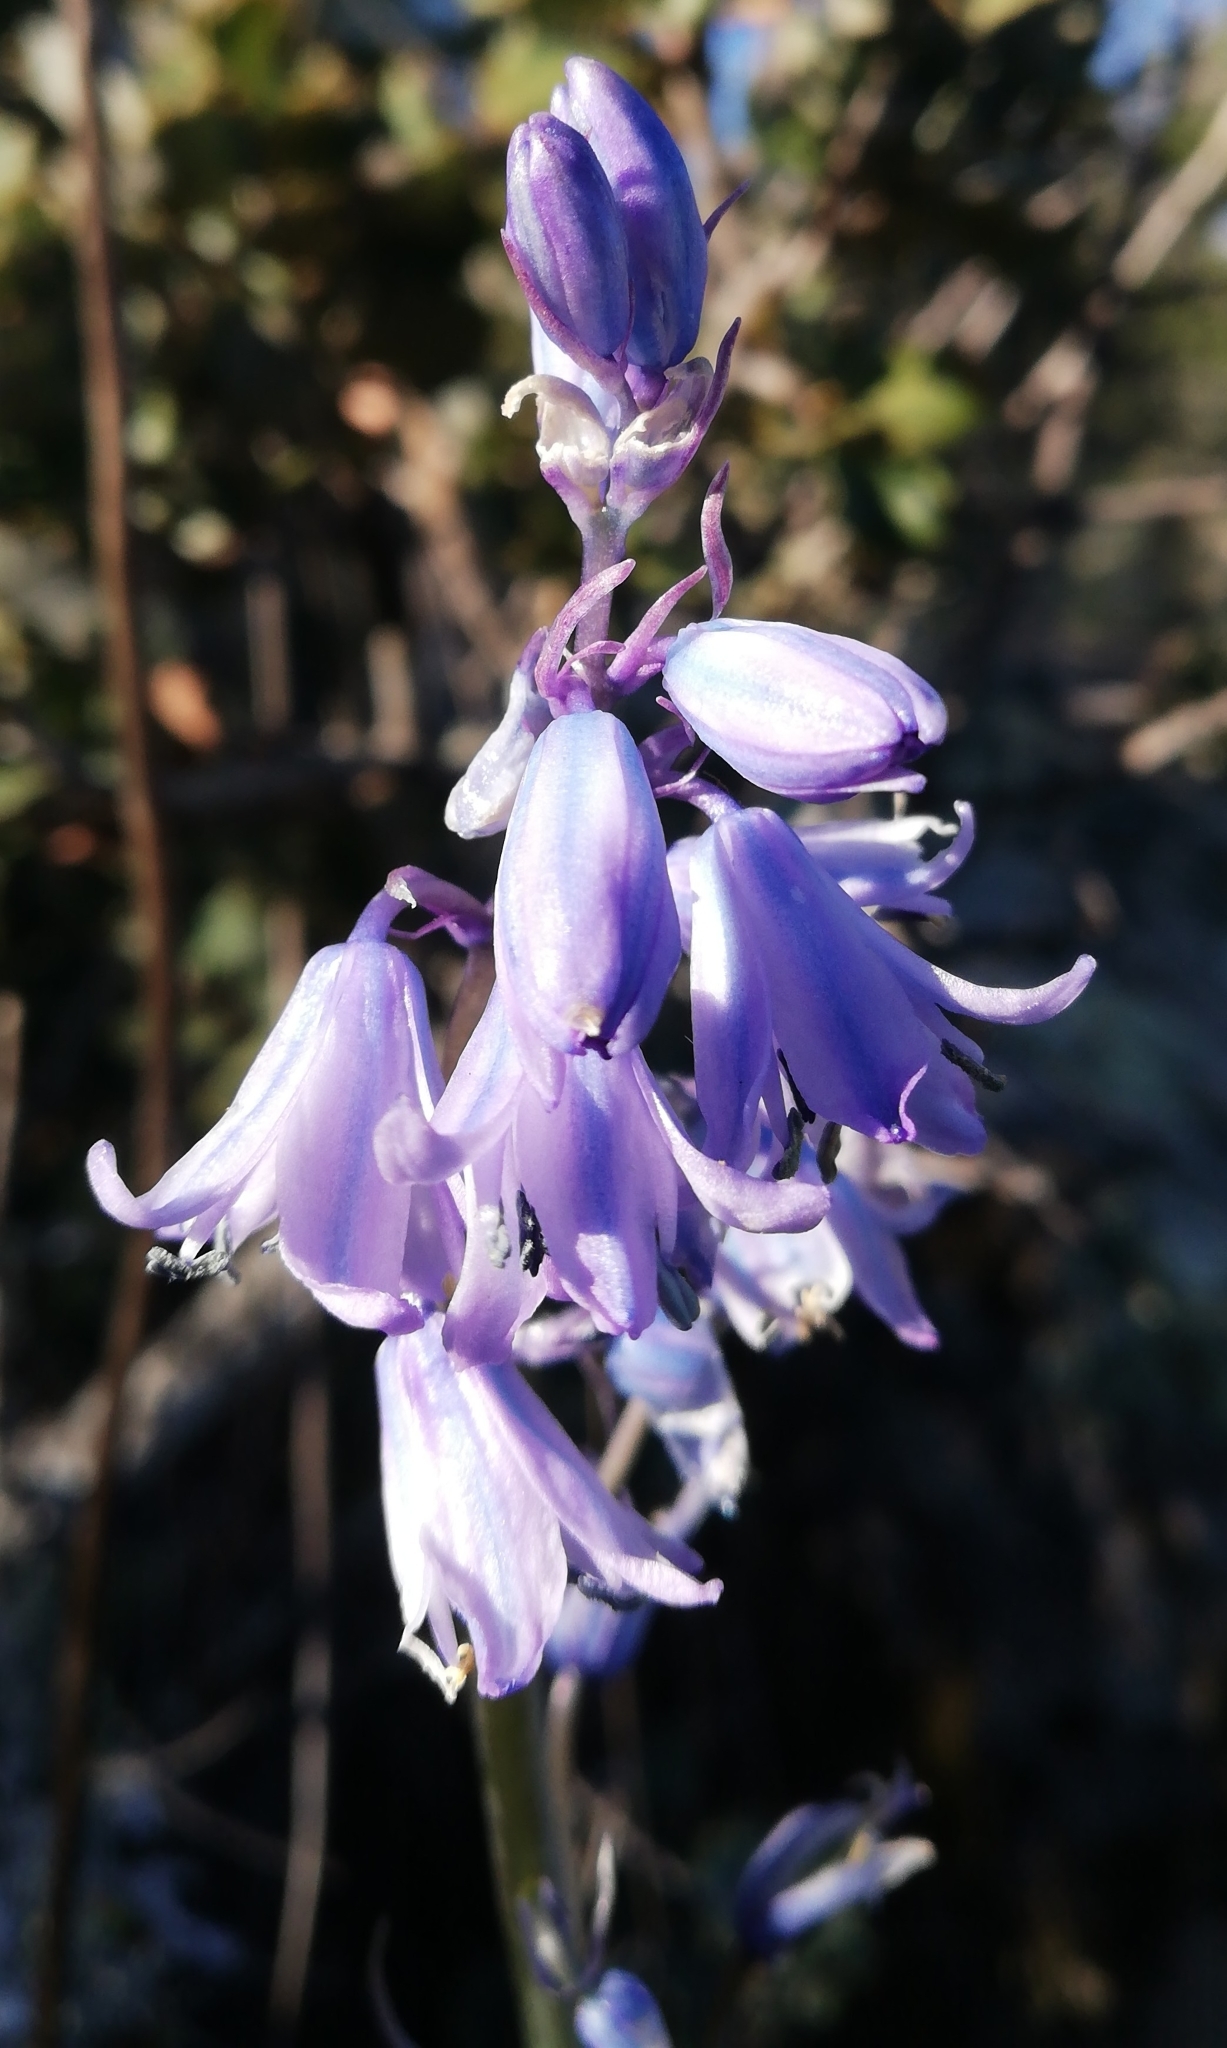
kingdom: Plantae
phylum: Tracheophyta
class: Liliopsida
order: Asparagales
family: Asparagaceae
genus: Hyacinthoides
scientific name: Hyacinthoides hispanica
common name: Spanish bluebell
